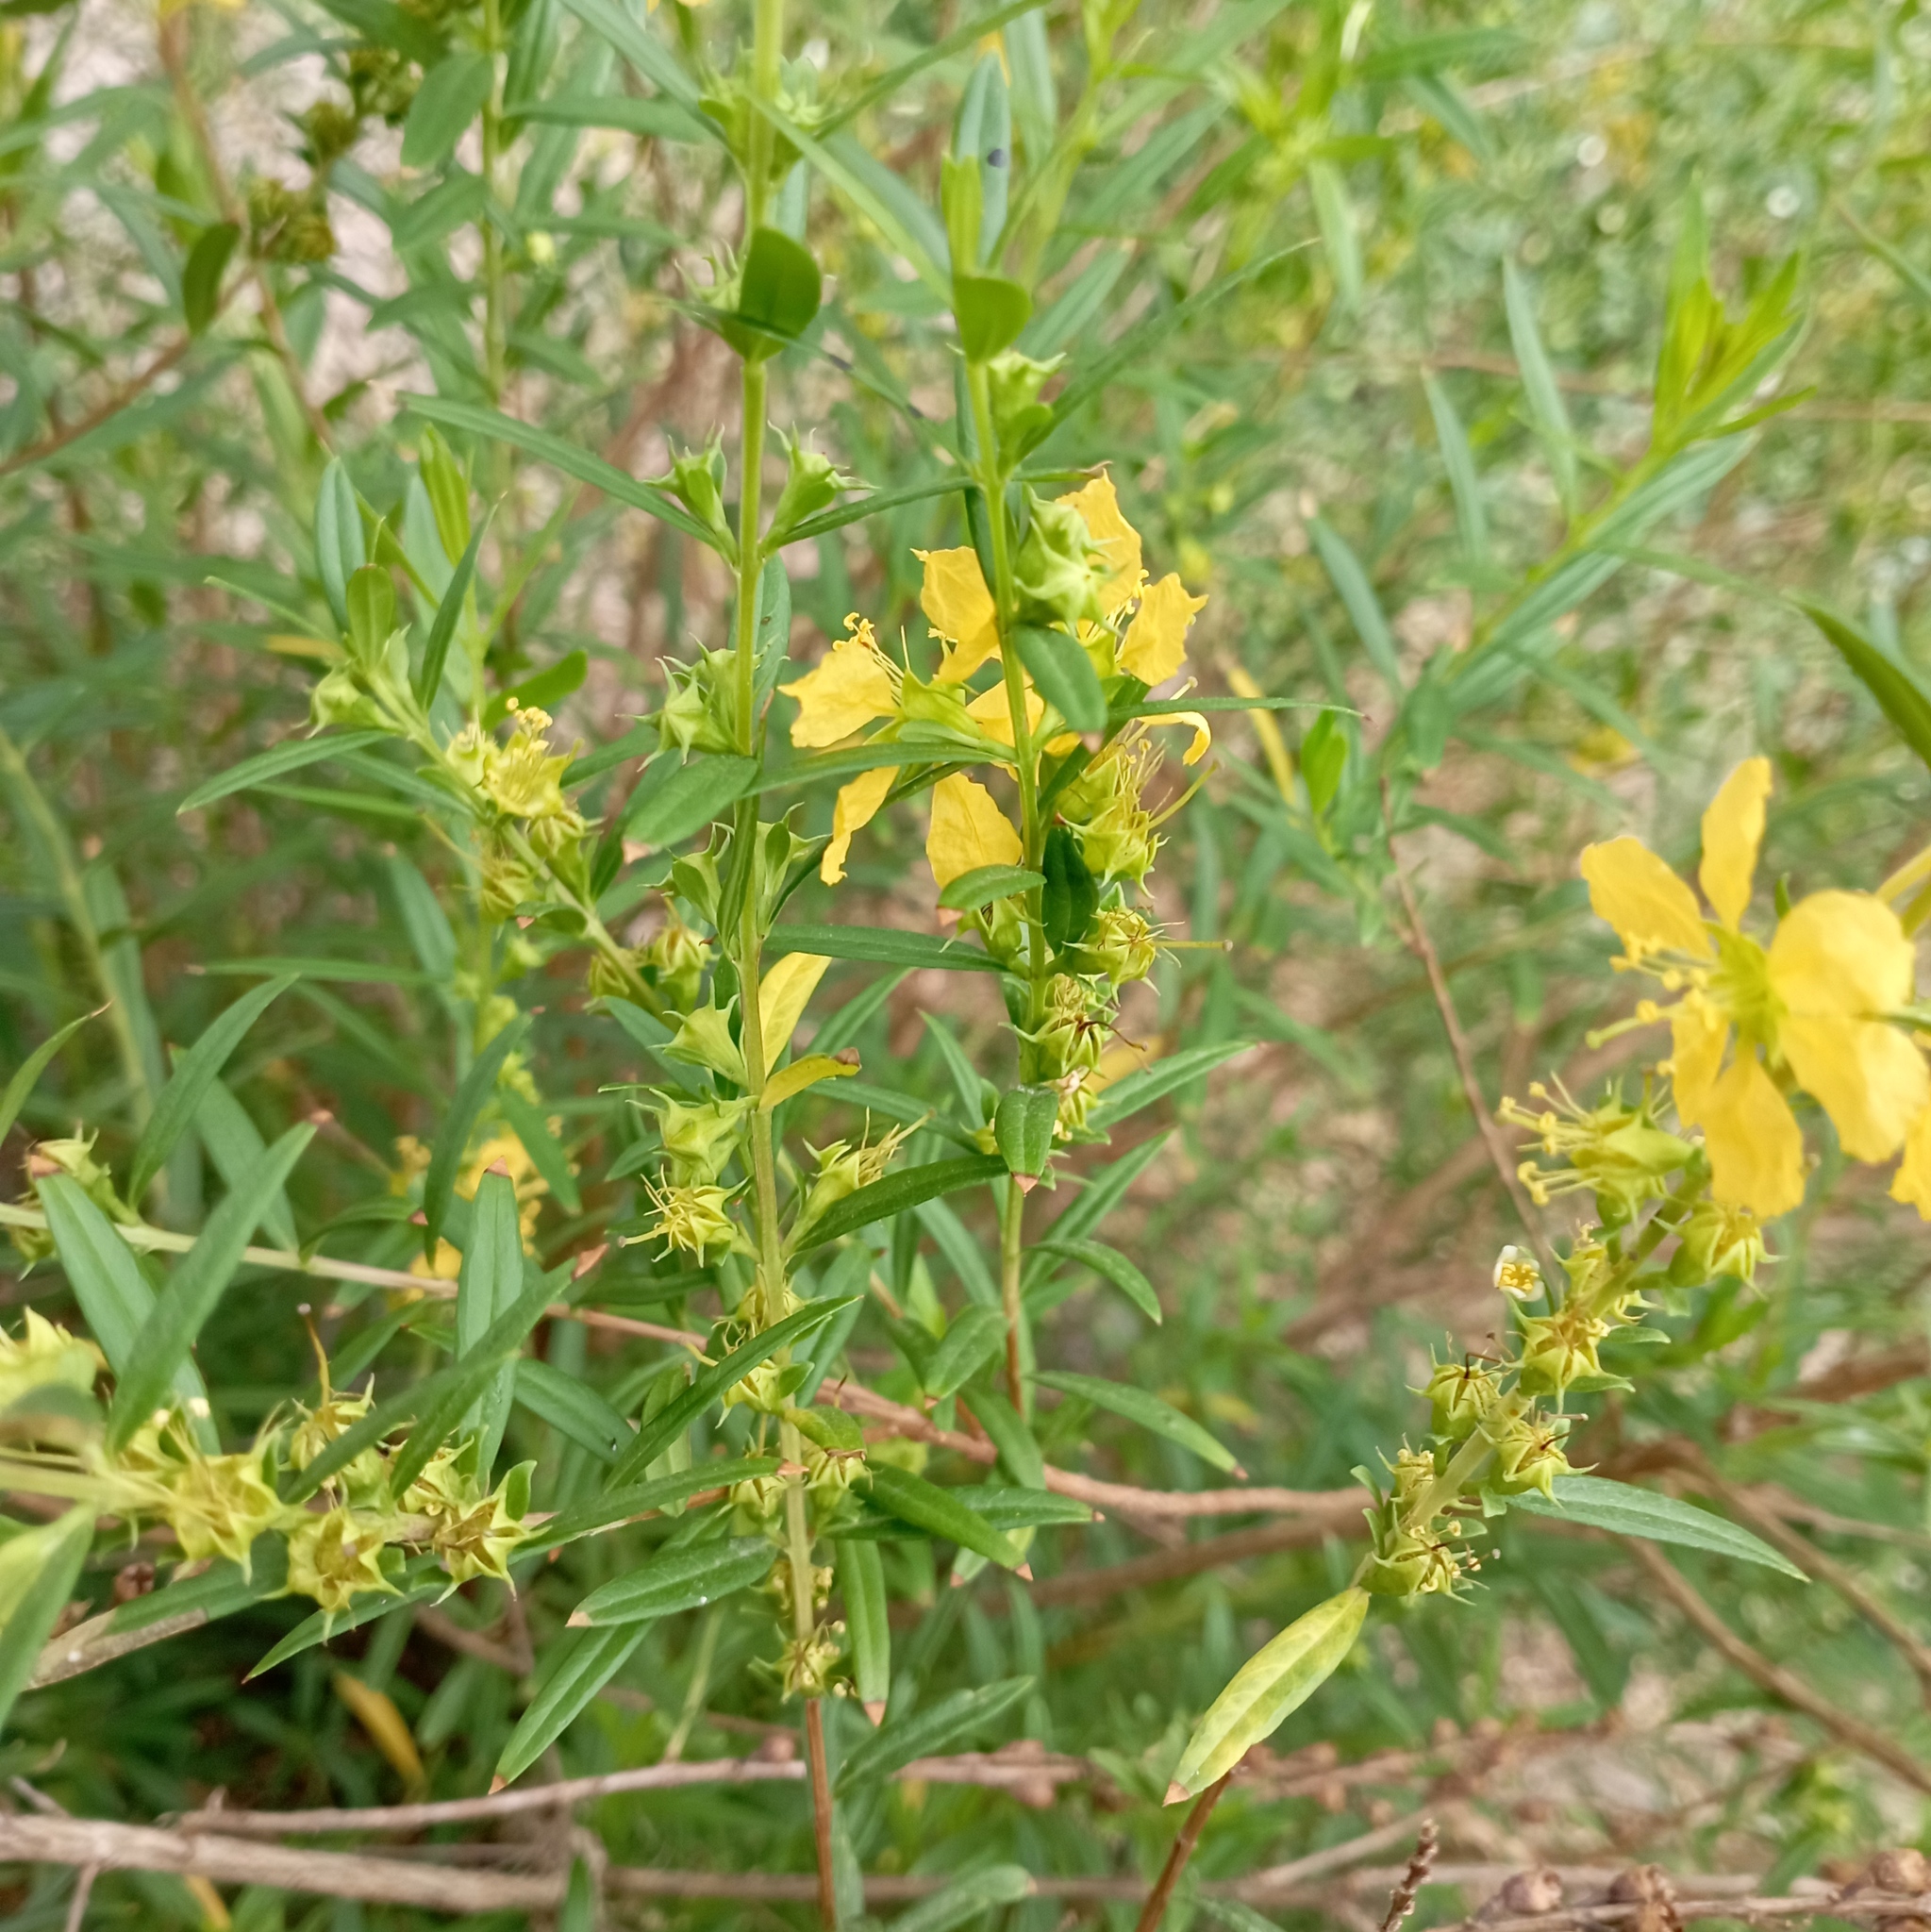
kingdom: Plantae
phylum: Tracheophyta
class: Magnoliopsida
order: Myrtales
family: Lythraceae
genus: Heimia
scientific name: Heimia salicifolia
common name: Willow-leaf heimia
